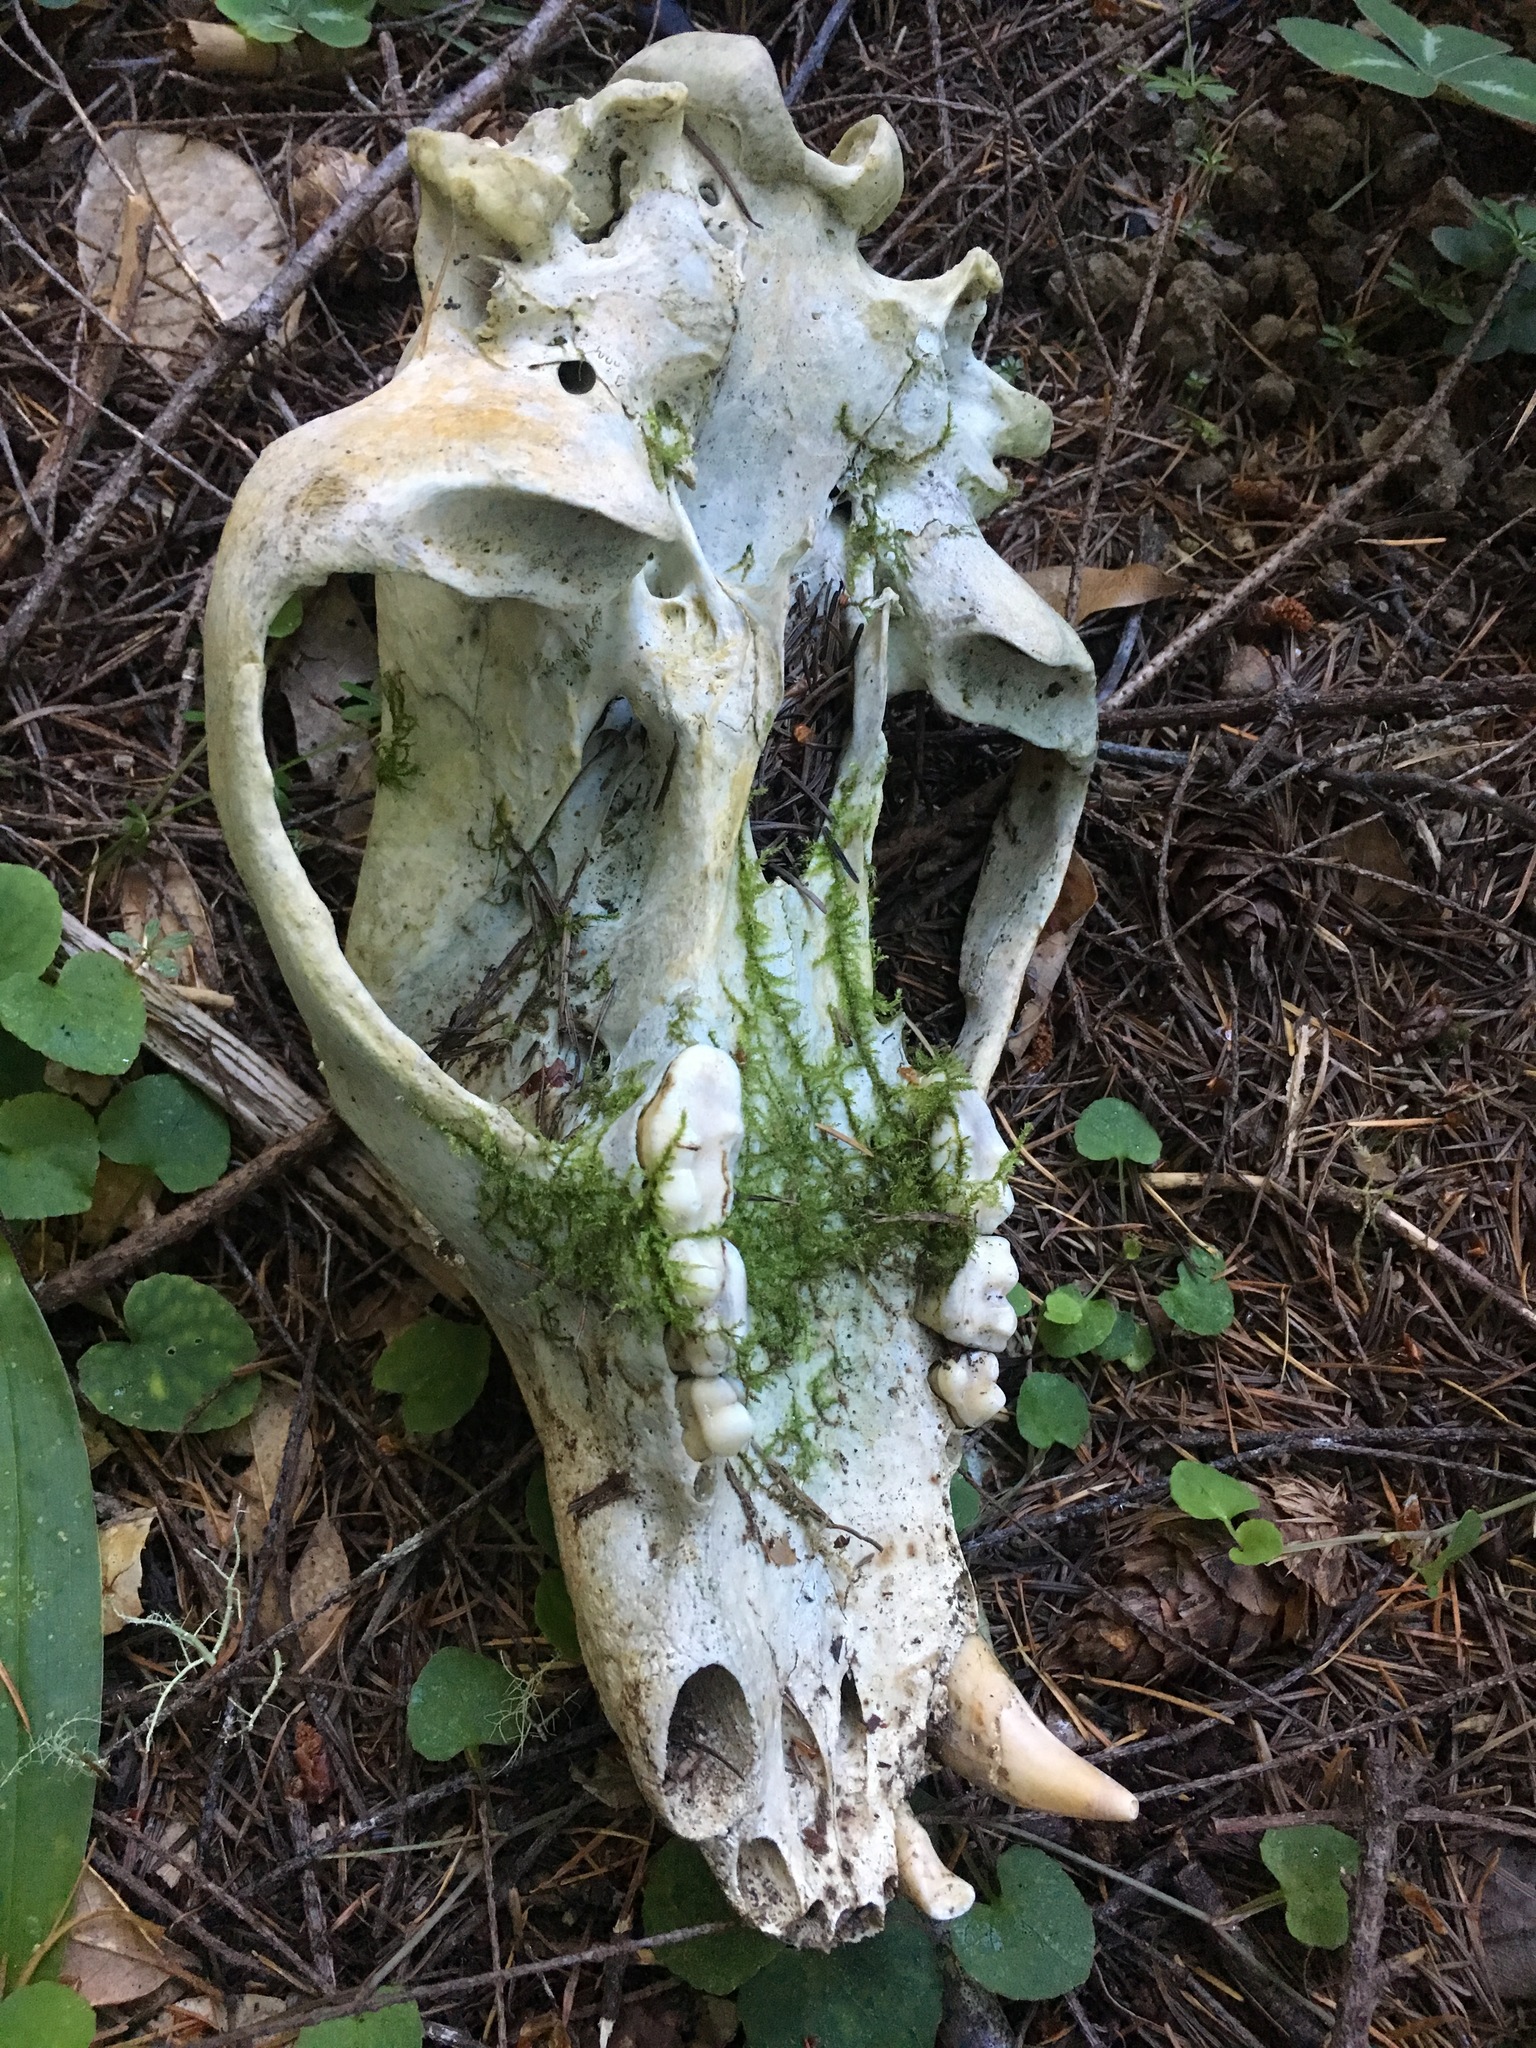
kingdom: Animalia
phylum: Chordata
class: Mammalia
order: Carnivora
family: Ursidae
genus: Ursus
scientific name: Ursus americanus
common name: American black bear
